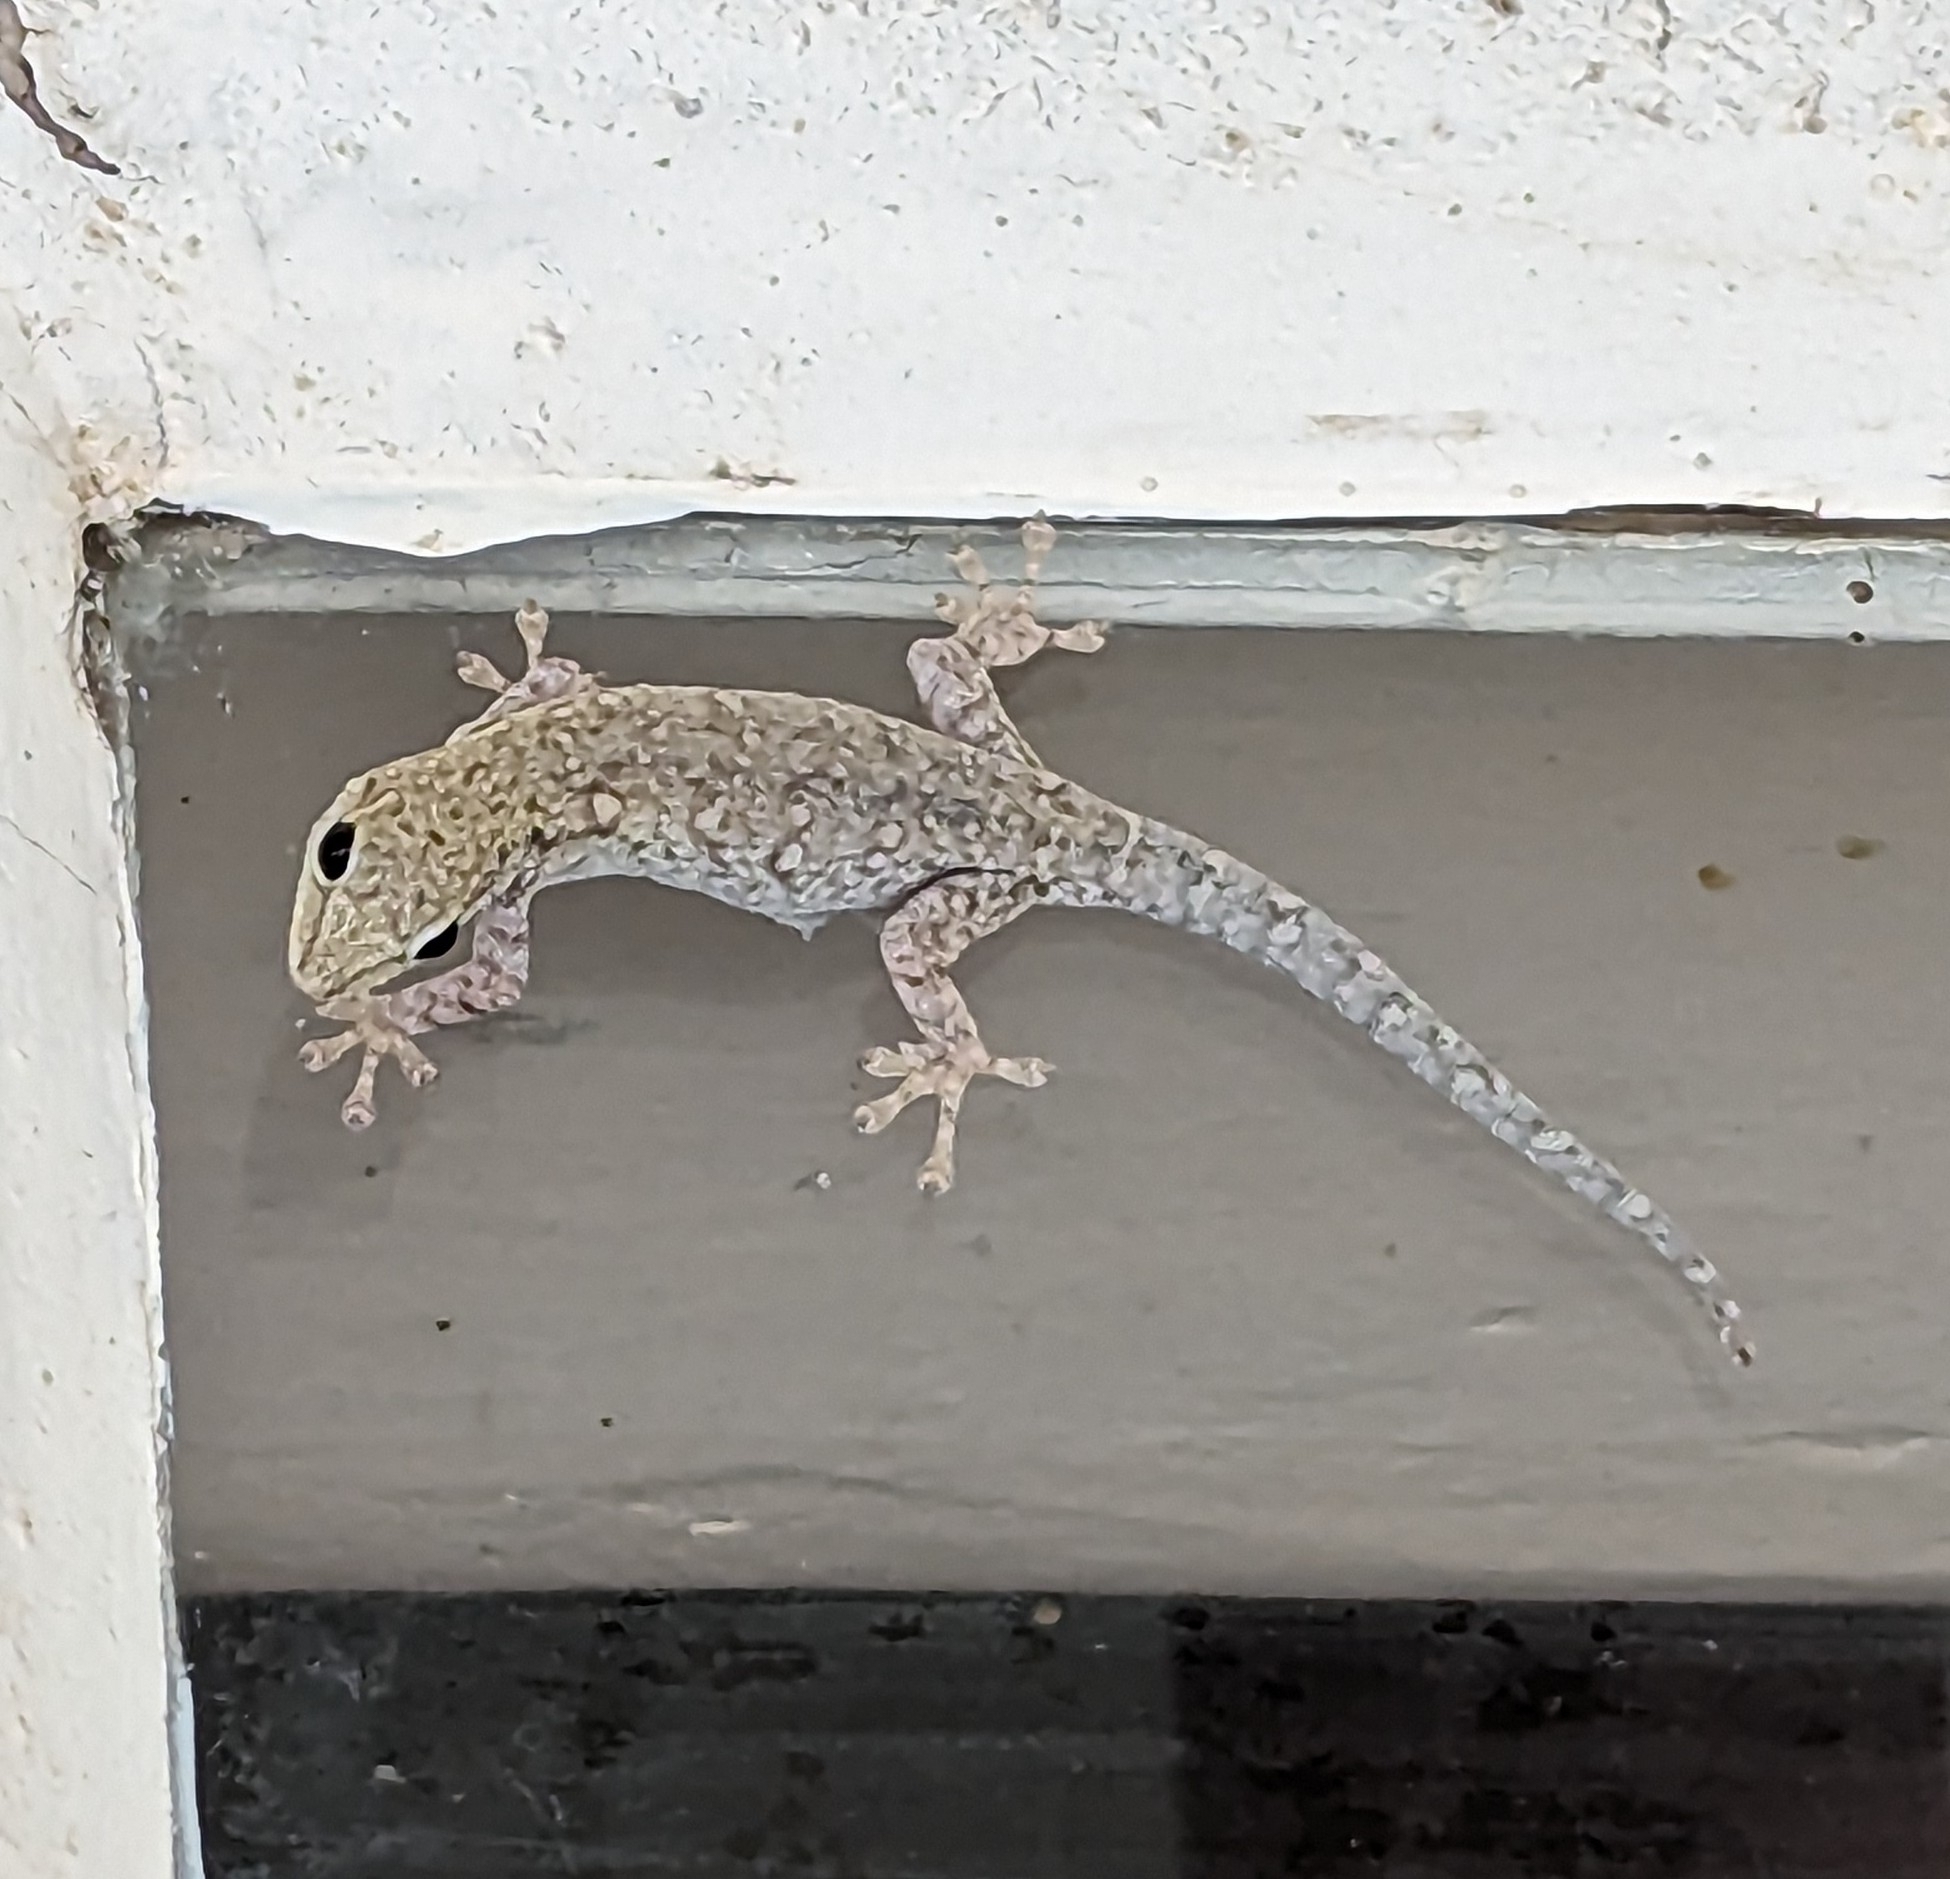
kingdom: Animalia
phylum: Chordata
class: Squamata
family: Gekkonidae
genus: Lygodactylus
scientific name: Lygodactylus chobiensis
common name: Okavango dwarf gecko
